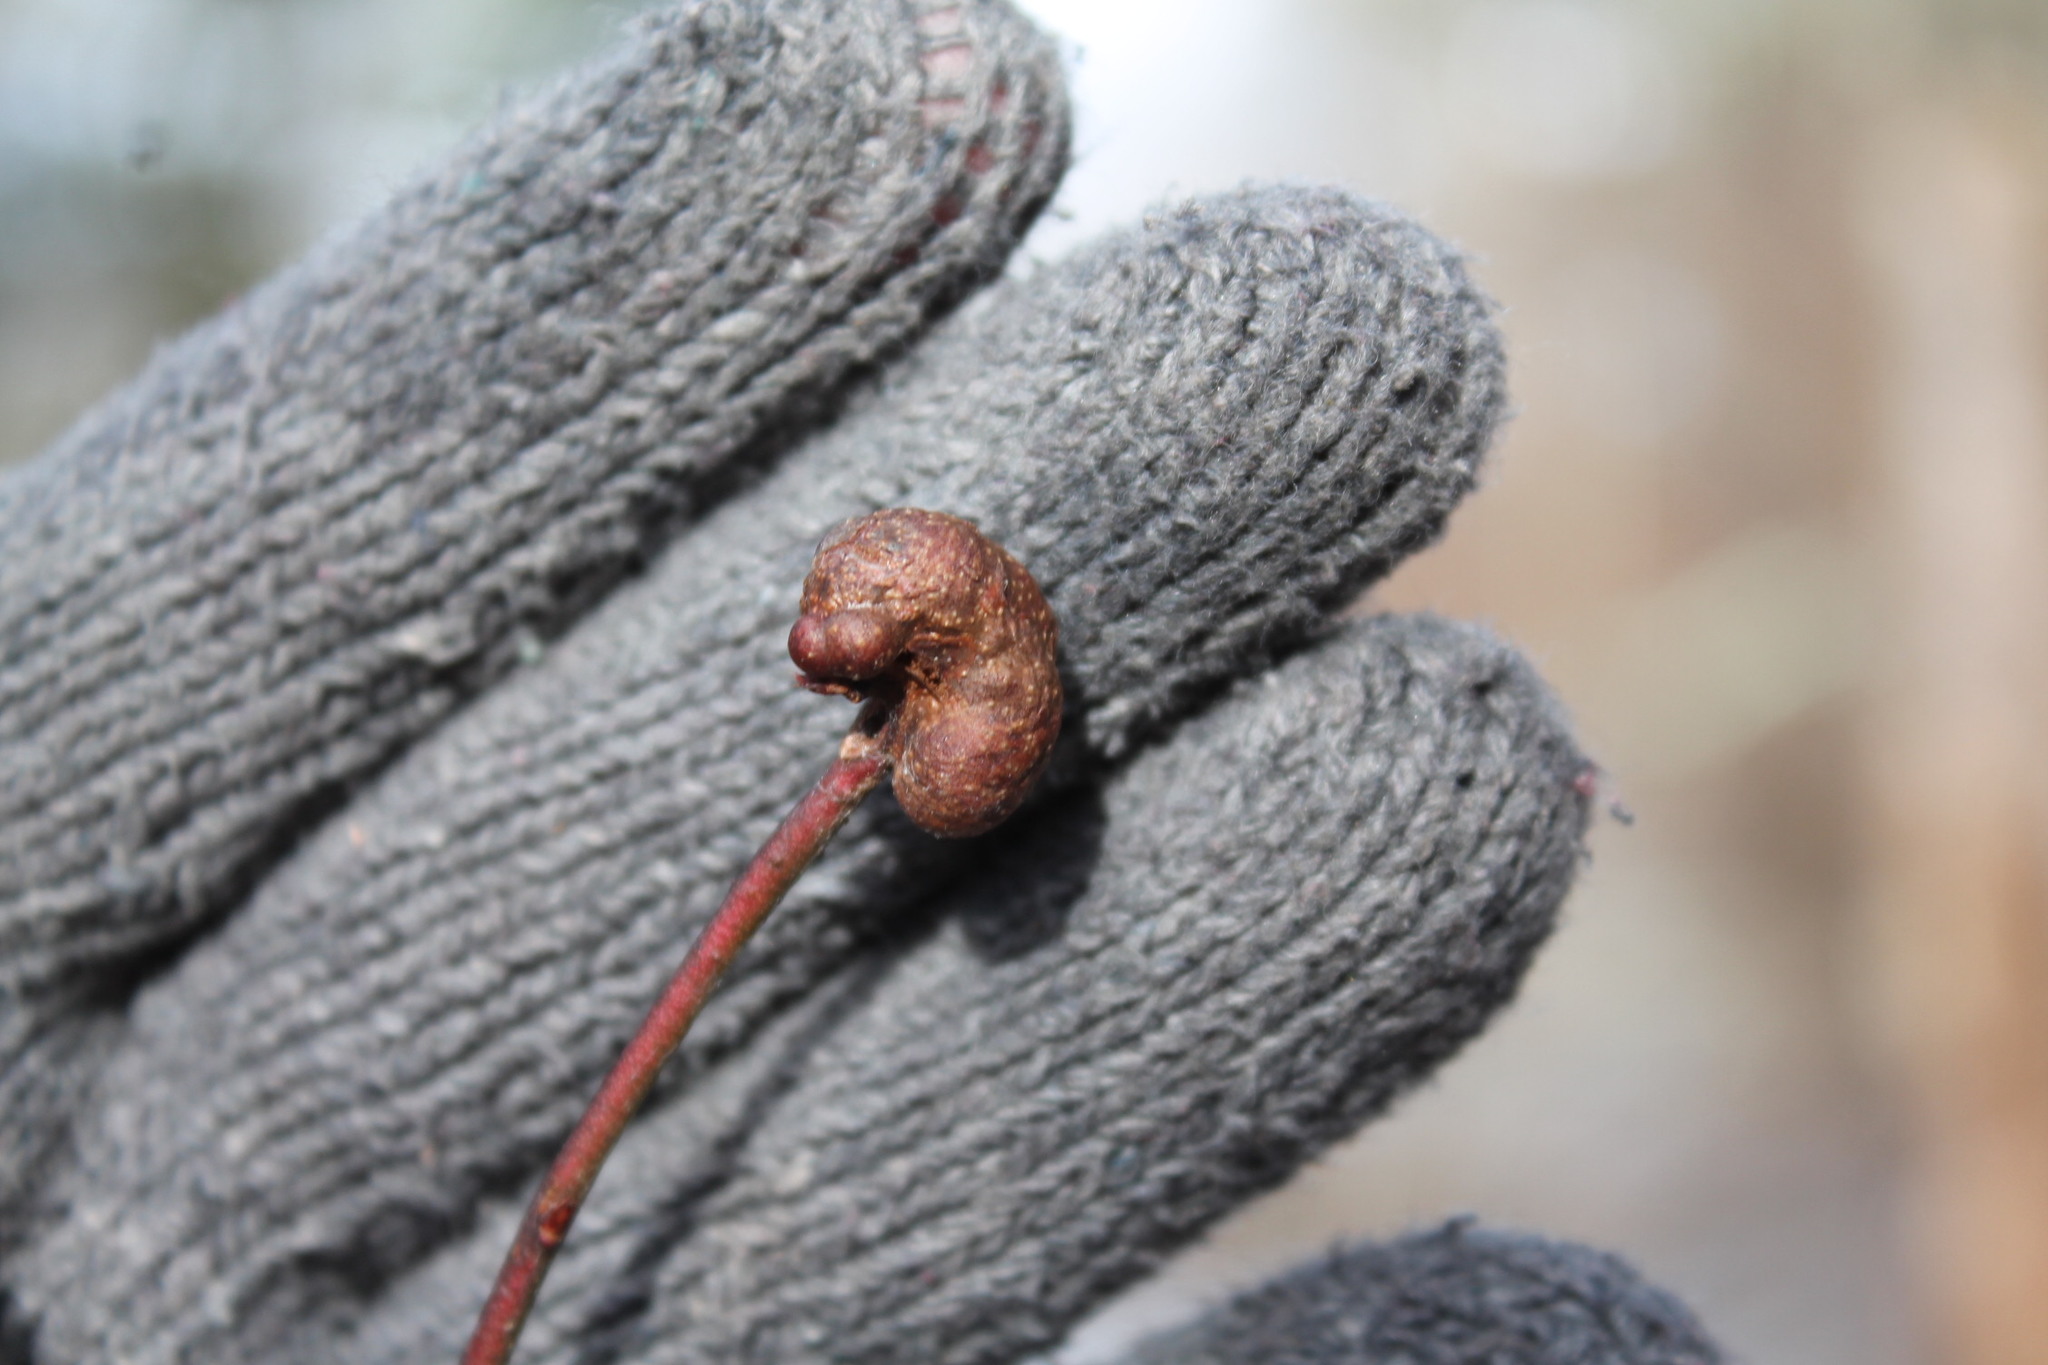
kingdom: Animalia
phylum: Arthropoda
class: Insecta
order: Hymenoptera
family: Pteromalidae
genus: Hemadas
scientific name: Hemadas nubilipennis
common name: Blueberry stem gall wasp
